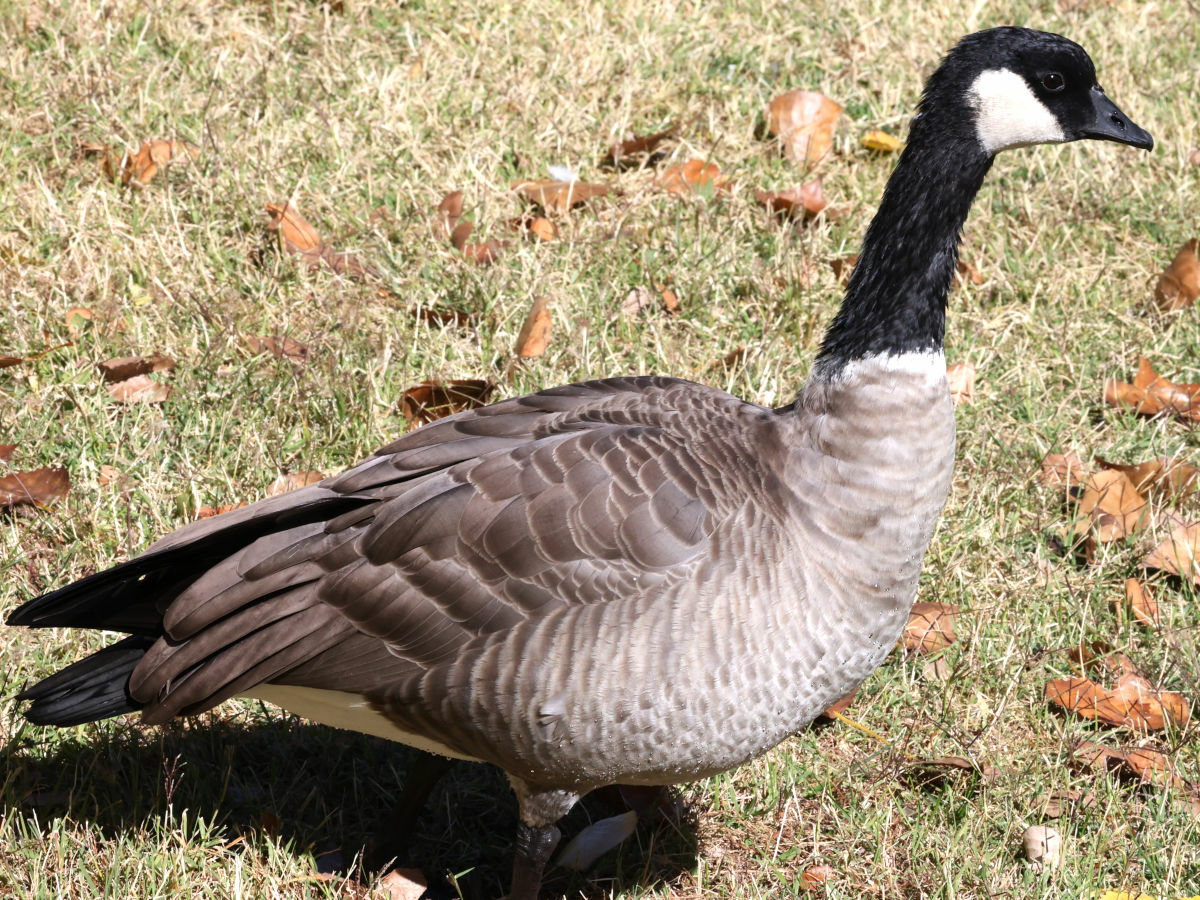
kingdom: Animalia
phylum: Chordata
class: Aves
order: Anseriformes
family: Anatidae
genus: Branta
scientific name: Branta hutchinsii
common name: Cackling goose
